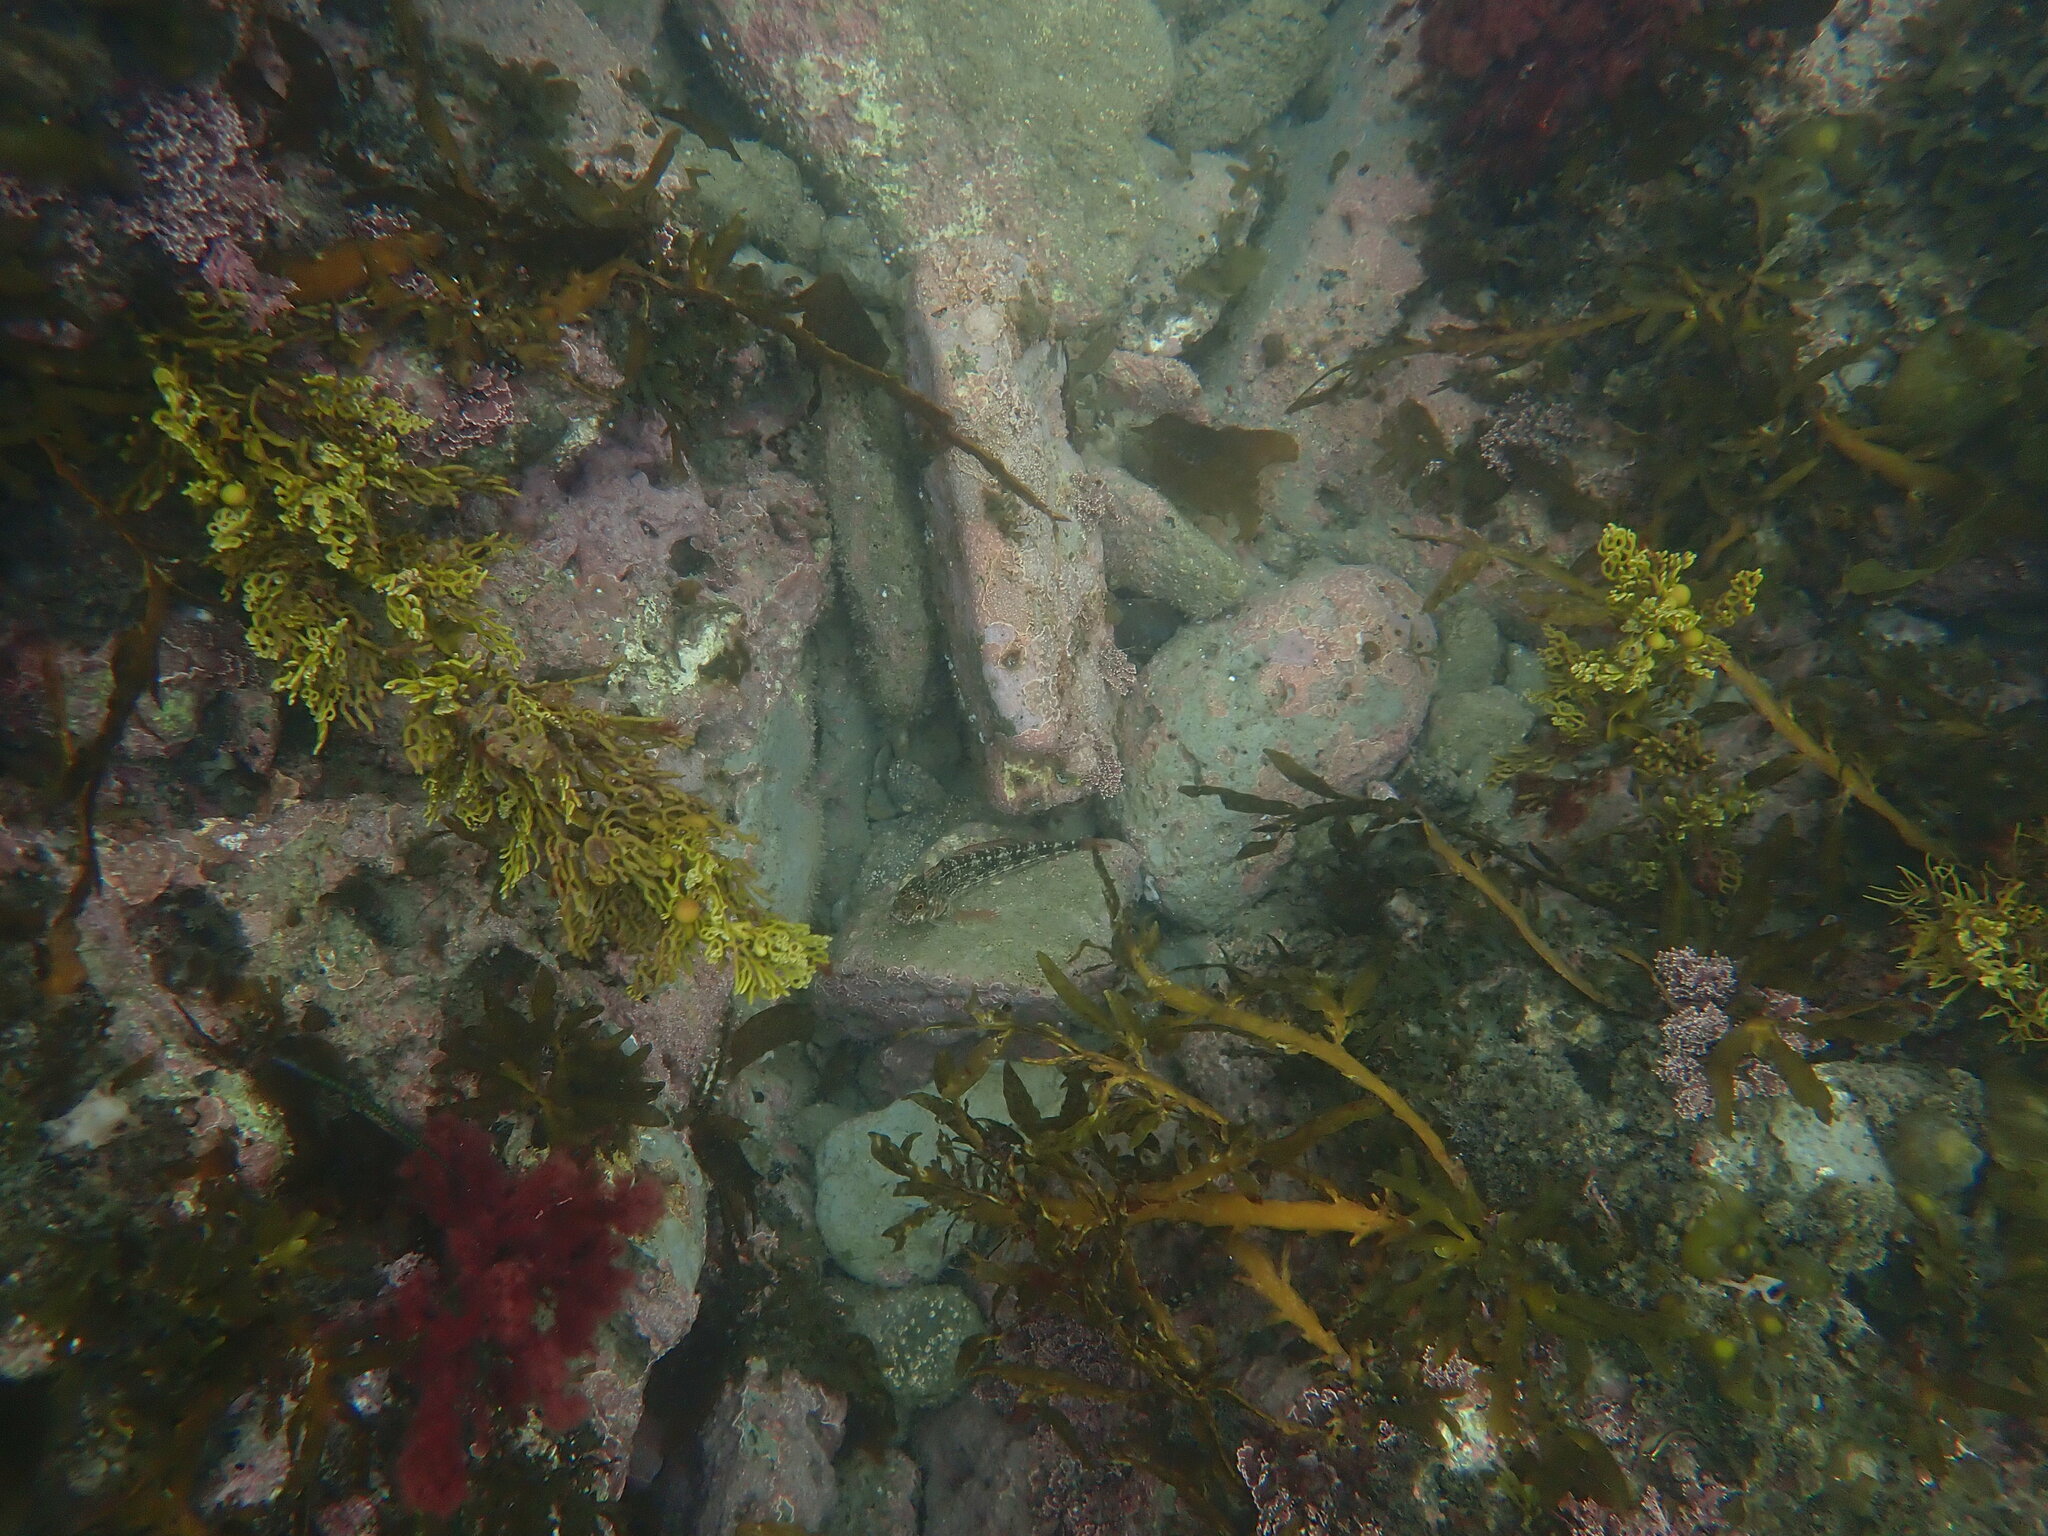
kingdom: Animalia
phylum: Chordata
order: Perciformes
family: Tripterygiidae
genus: Forsterygion
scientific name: Forsterygion varium
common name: Variable triplefin
